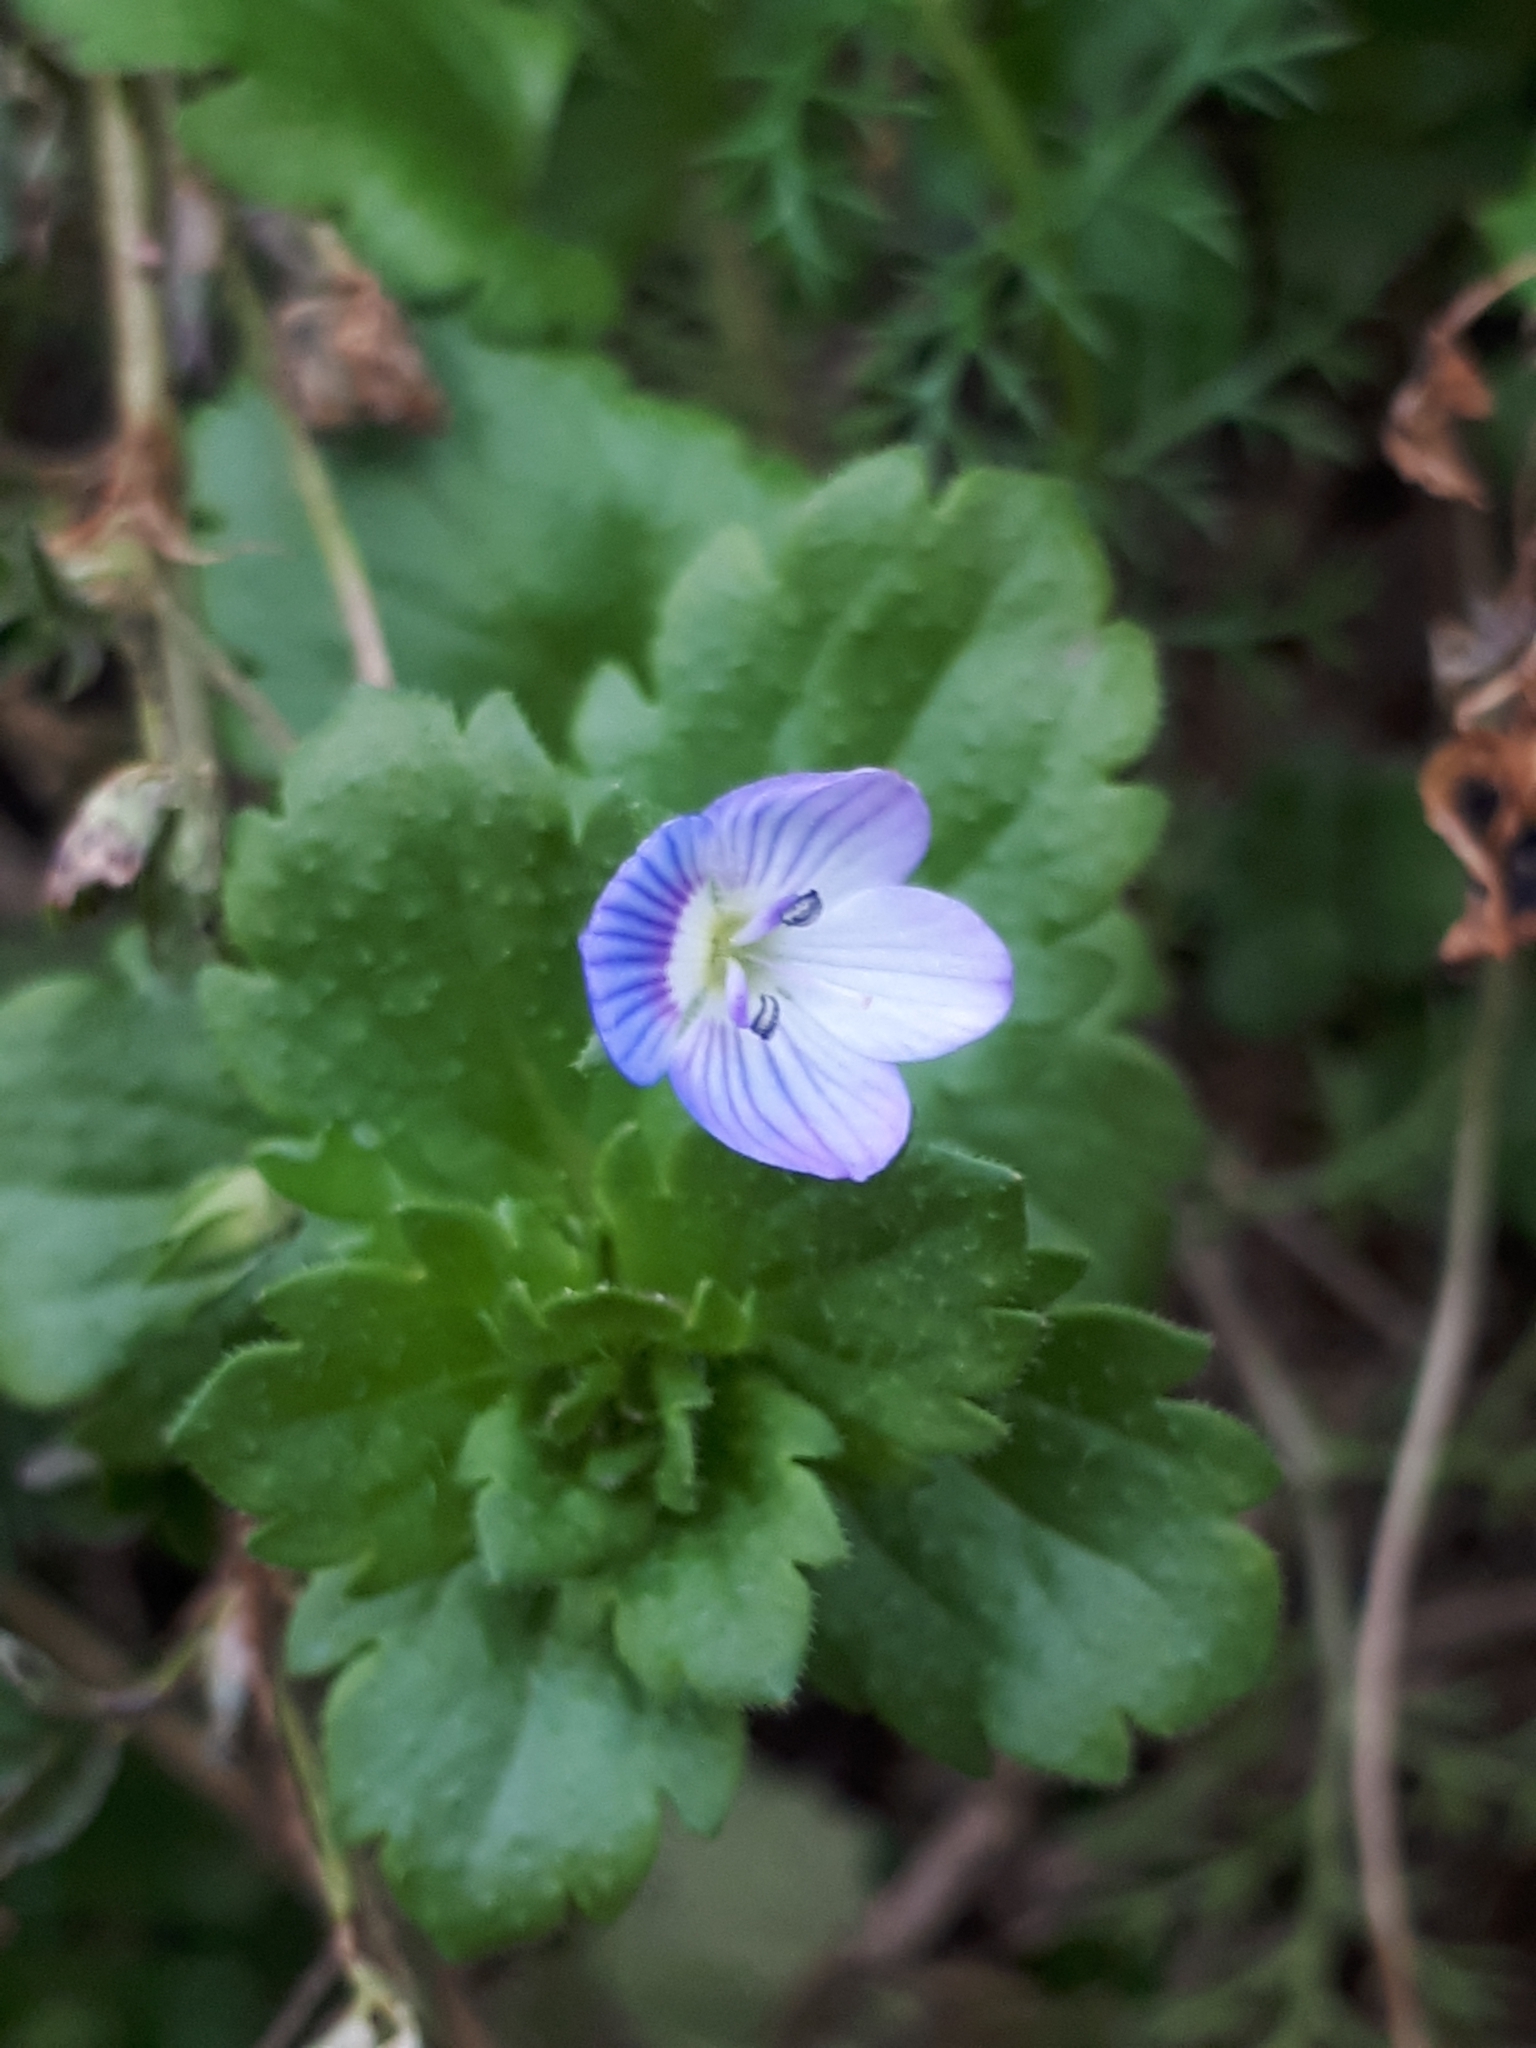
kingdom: Plantae
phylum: Tracheophyta
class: Magnoliopsida
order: Lamiales
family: Plantaginaceae
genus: Veronica
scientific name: Veronica persica
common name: Common field-speedwell
